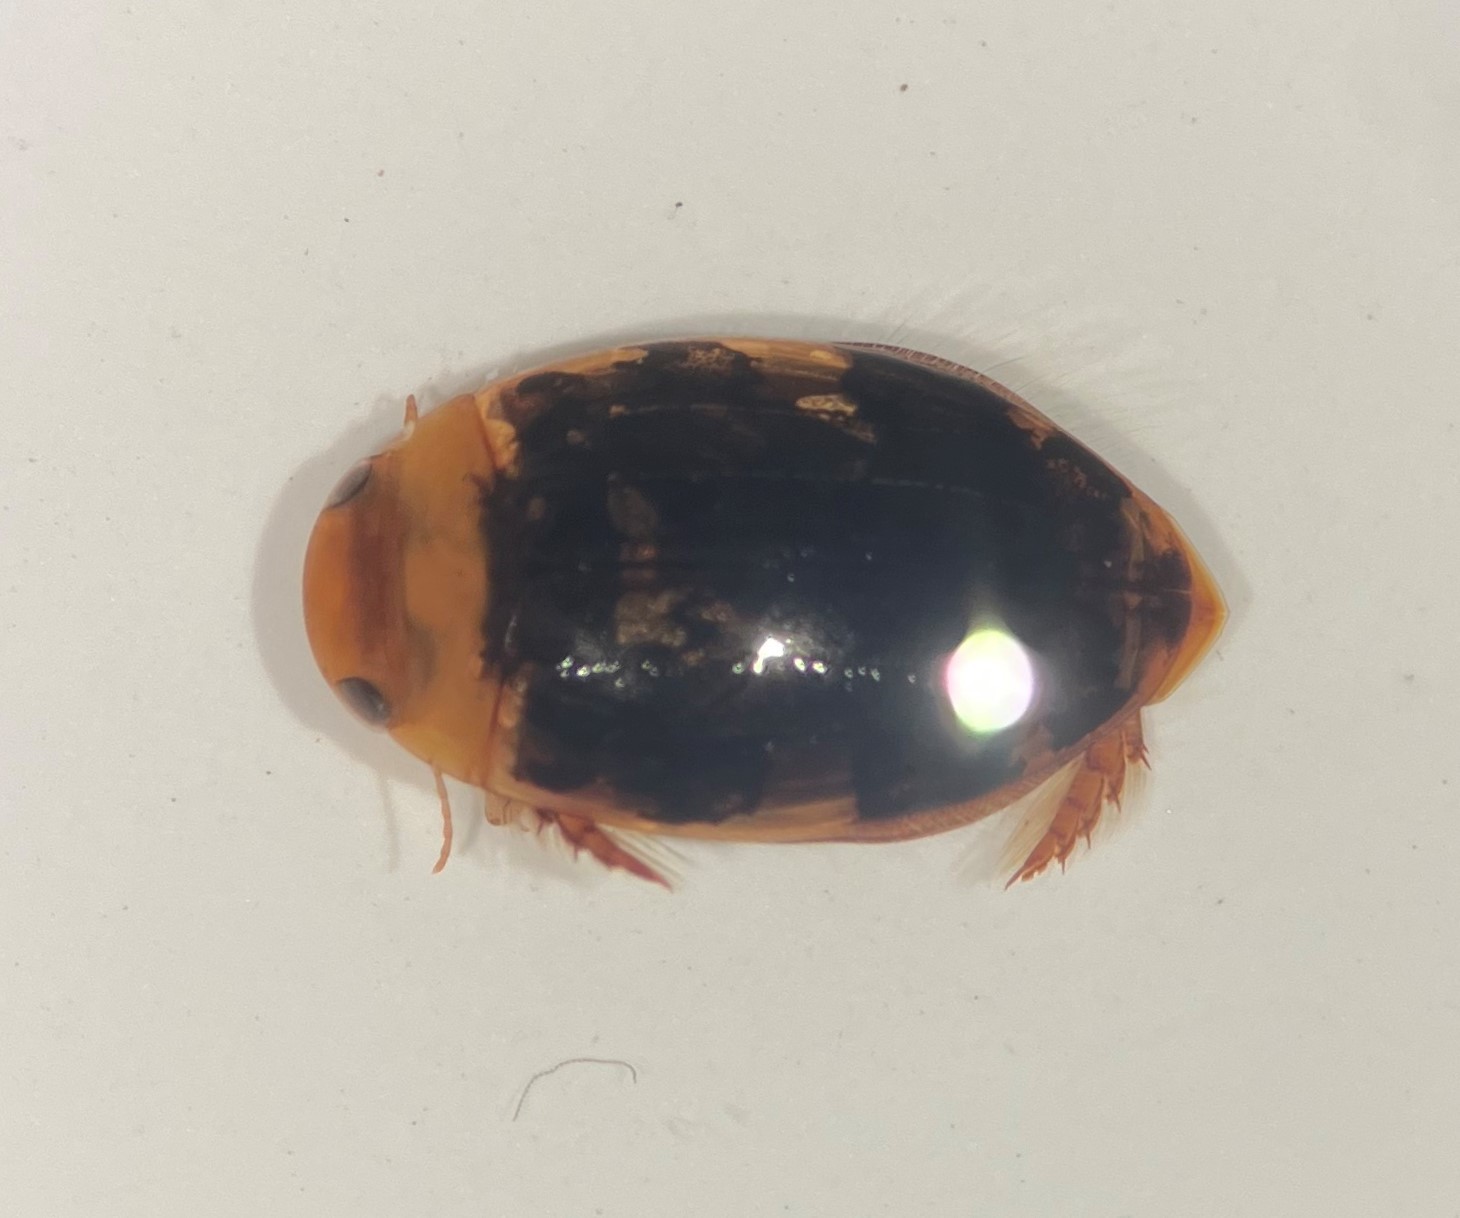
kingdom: Animalia
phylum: Arthropoda
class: Insecta
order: Coleoptera
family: Dytiscidae
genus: Laccophilus
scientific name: Laccophilus maculosus
